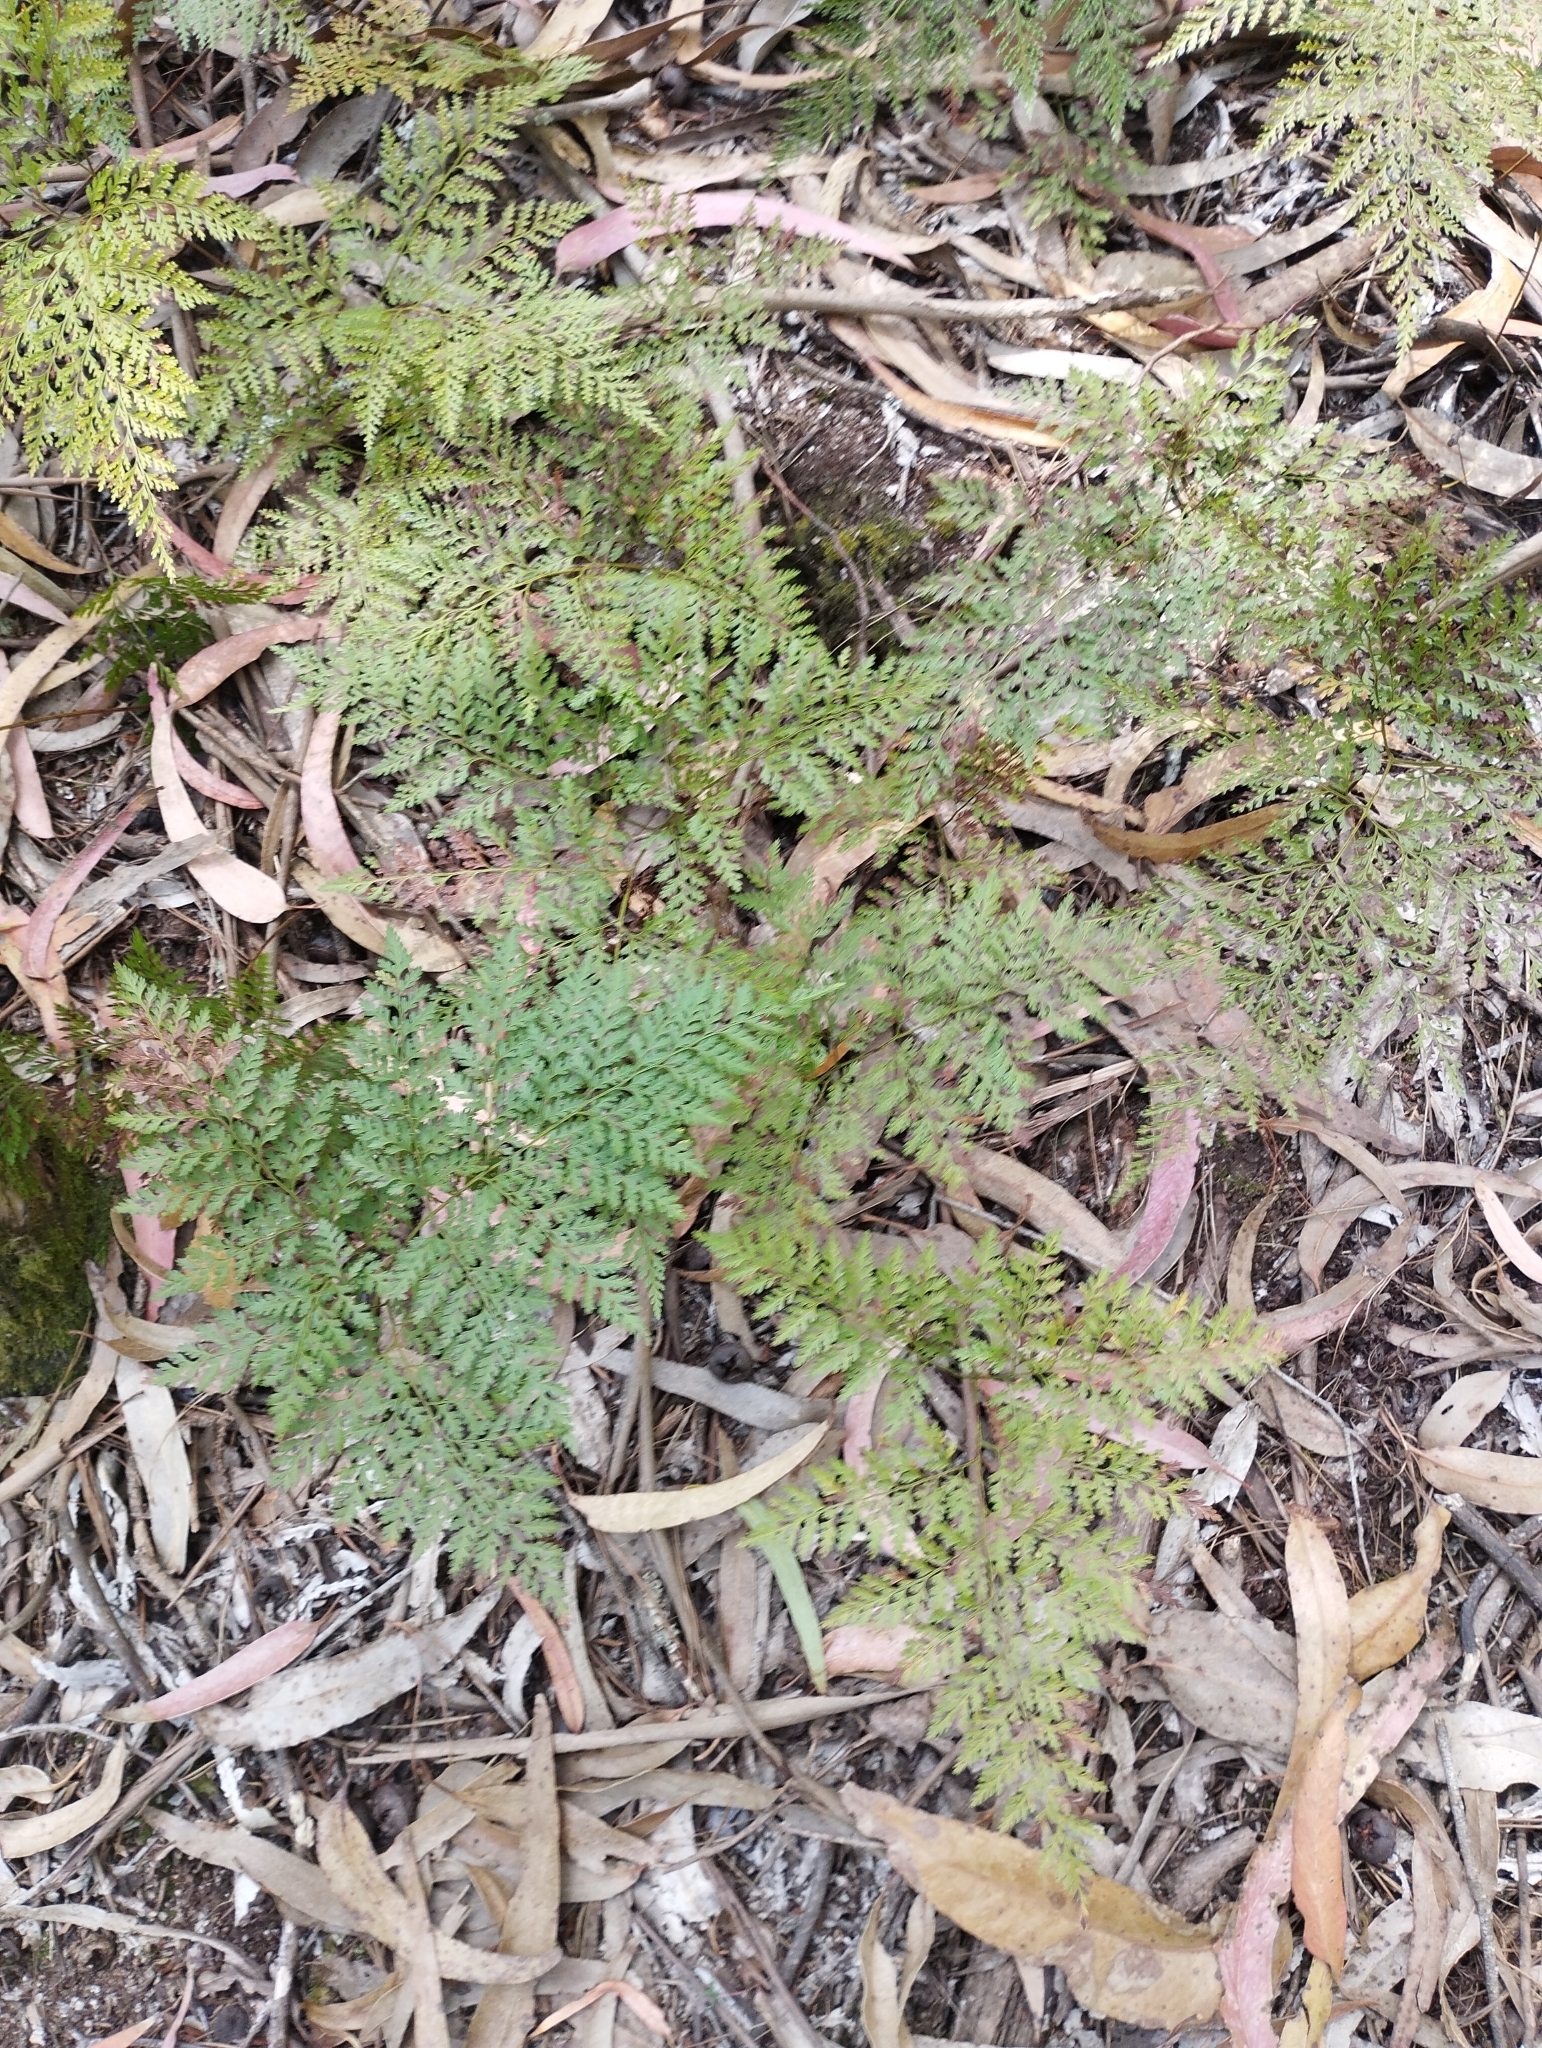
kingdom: Plantae
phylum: Tracheophyta
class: Polypodiopsida
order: Polypodiales
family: Davalliaceae
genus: Davallia
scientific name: Davallia canariensis
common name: Hare's-foot fern
